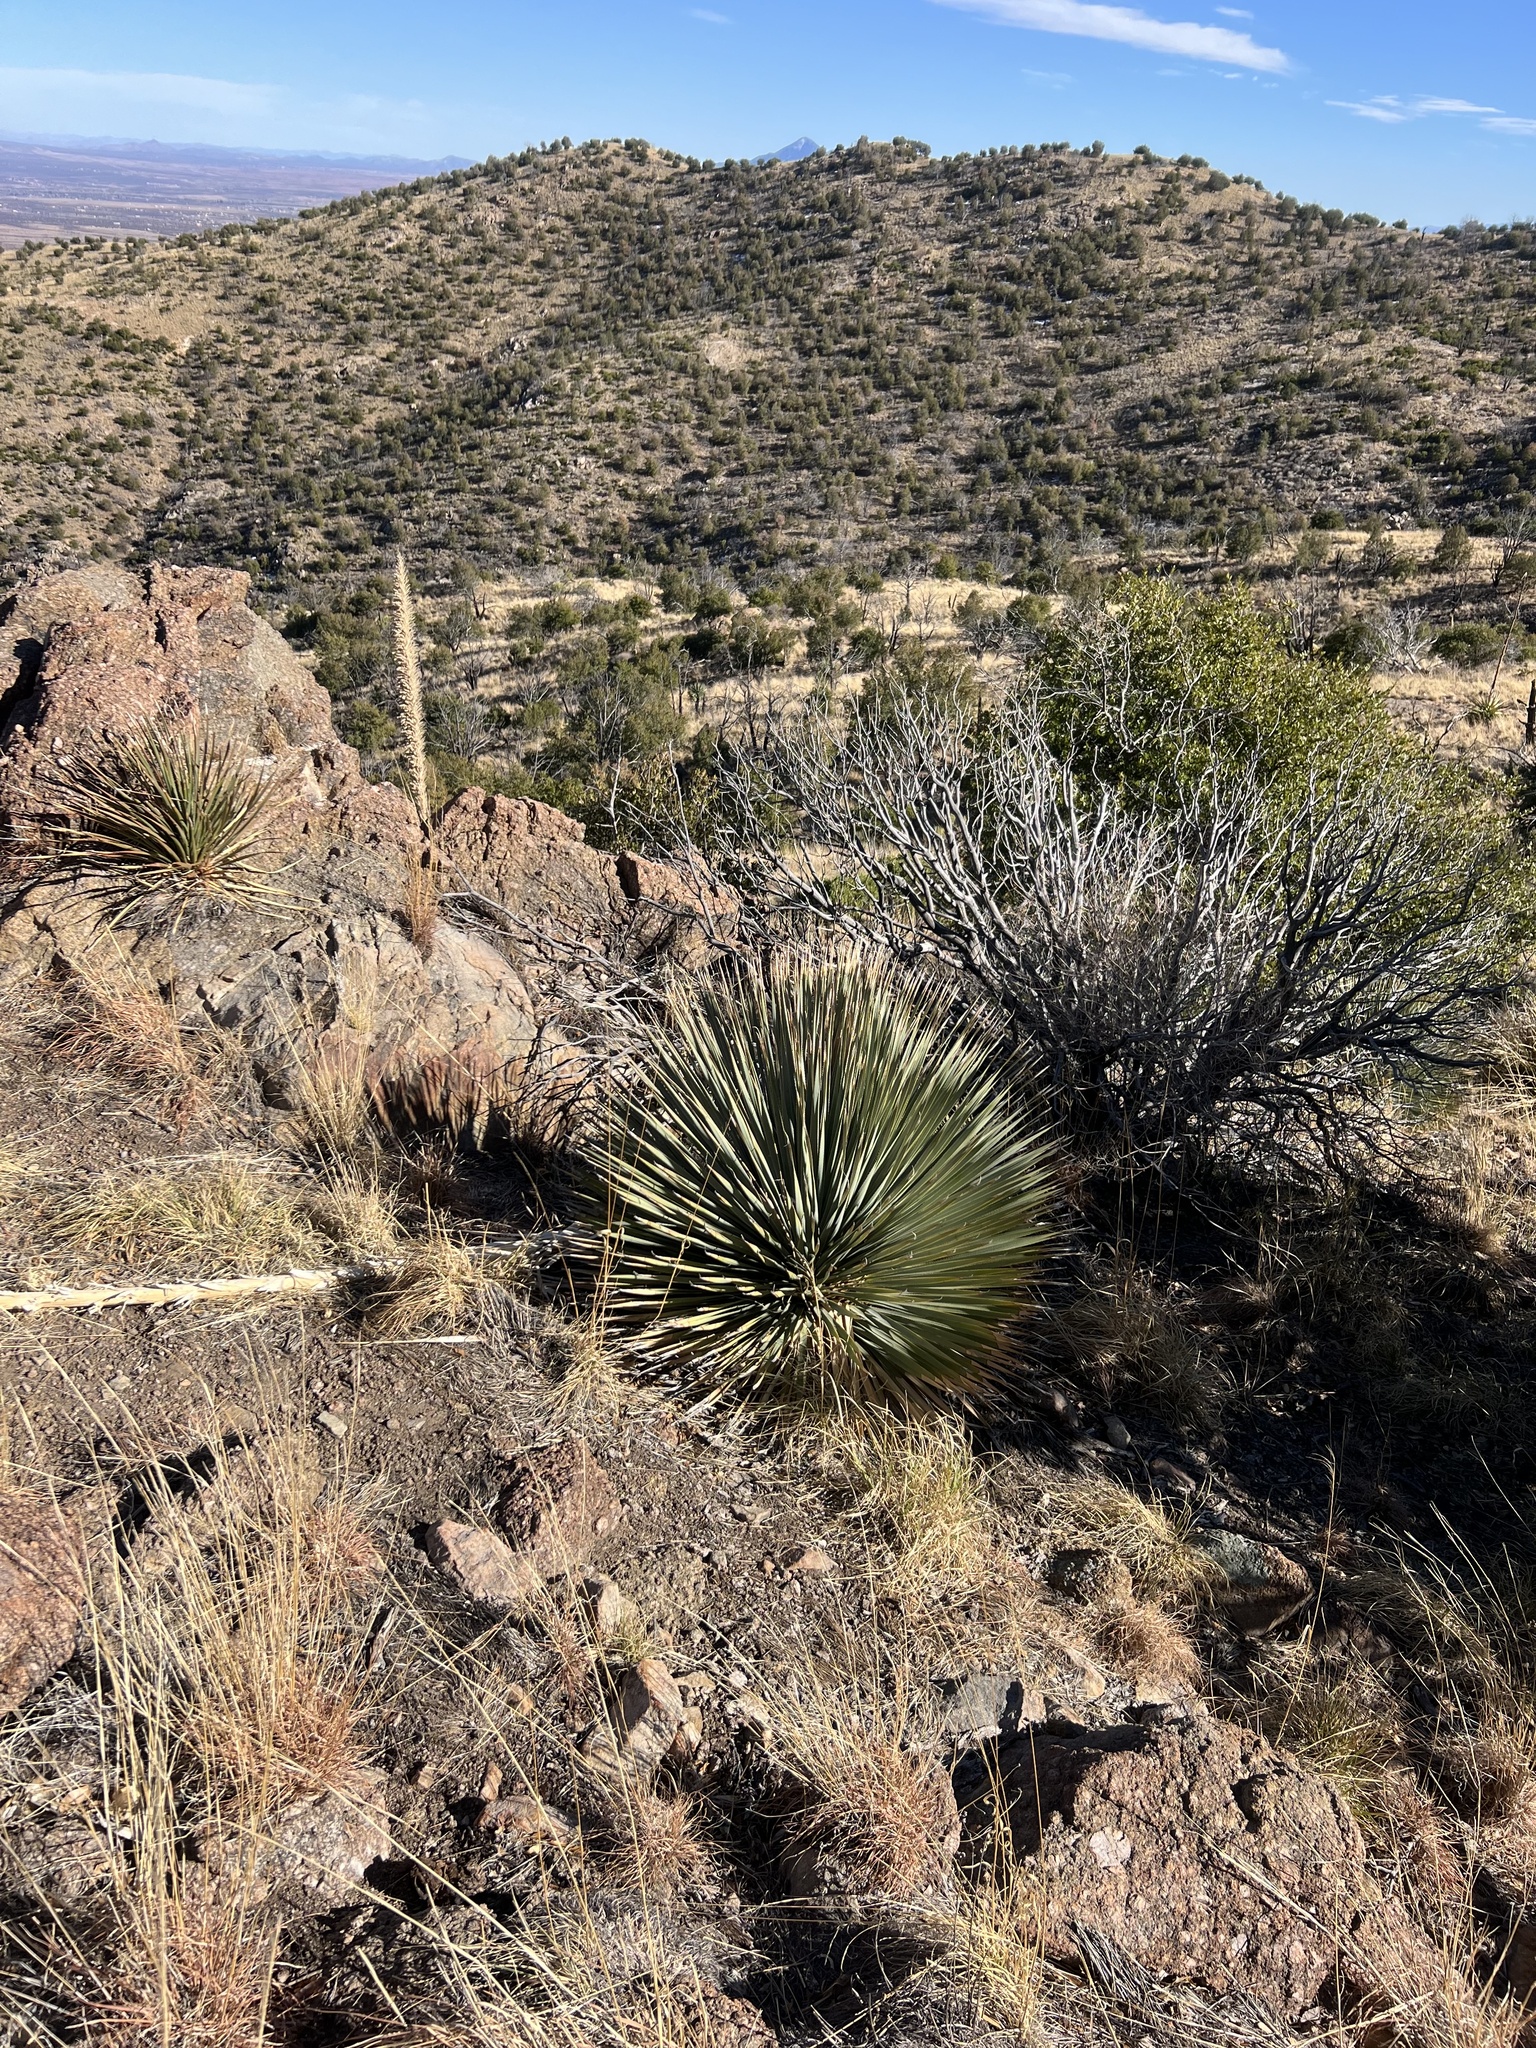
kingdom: Plantae
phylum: Tracheophyta
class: Liliopsida
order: Asparagales
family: Asparagaceae
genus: Dasylirion
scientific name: Dasylirion wheeleri
